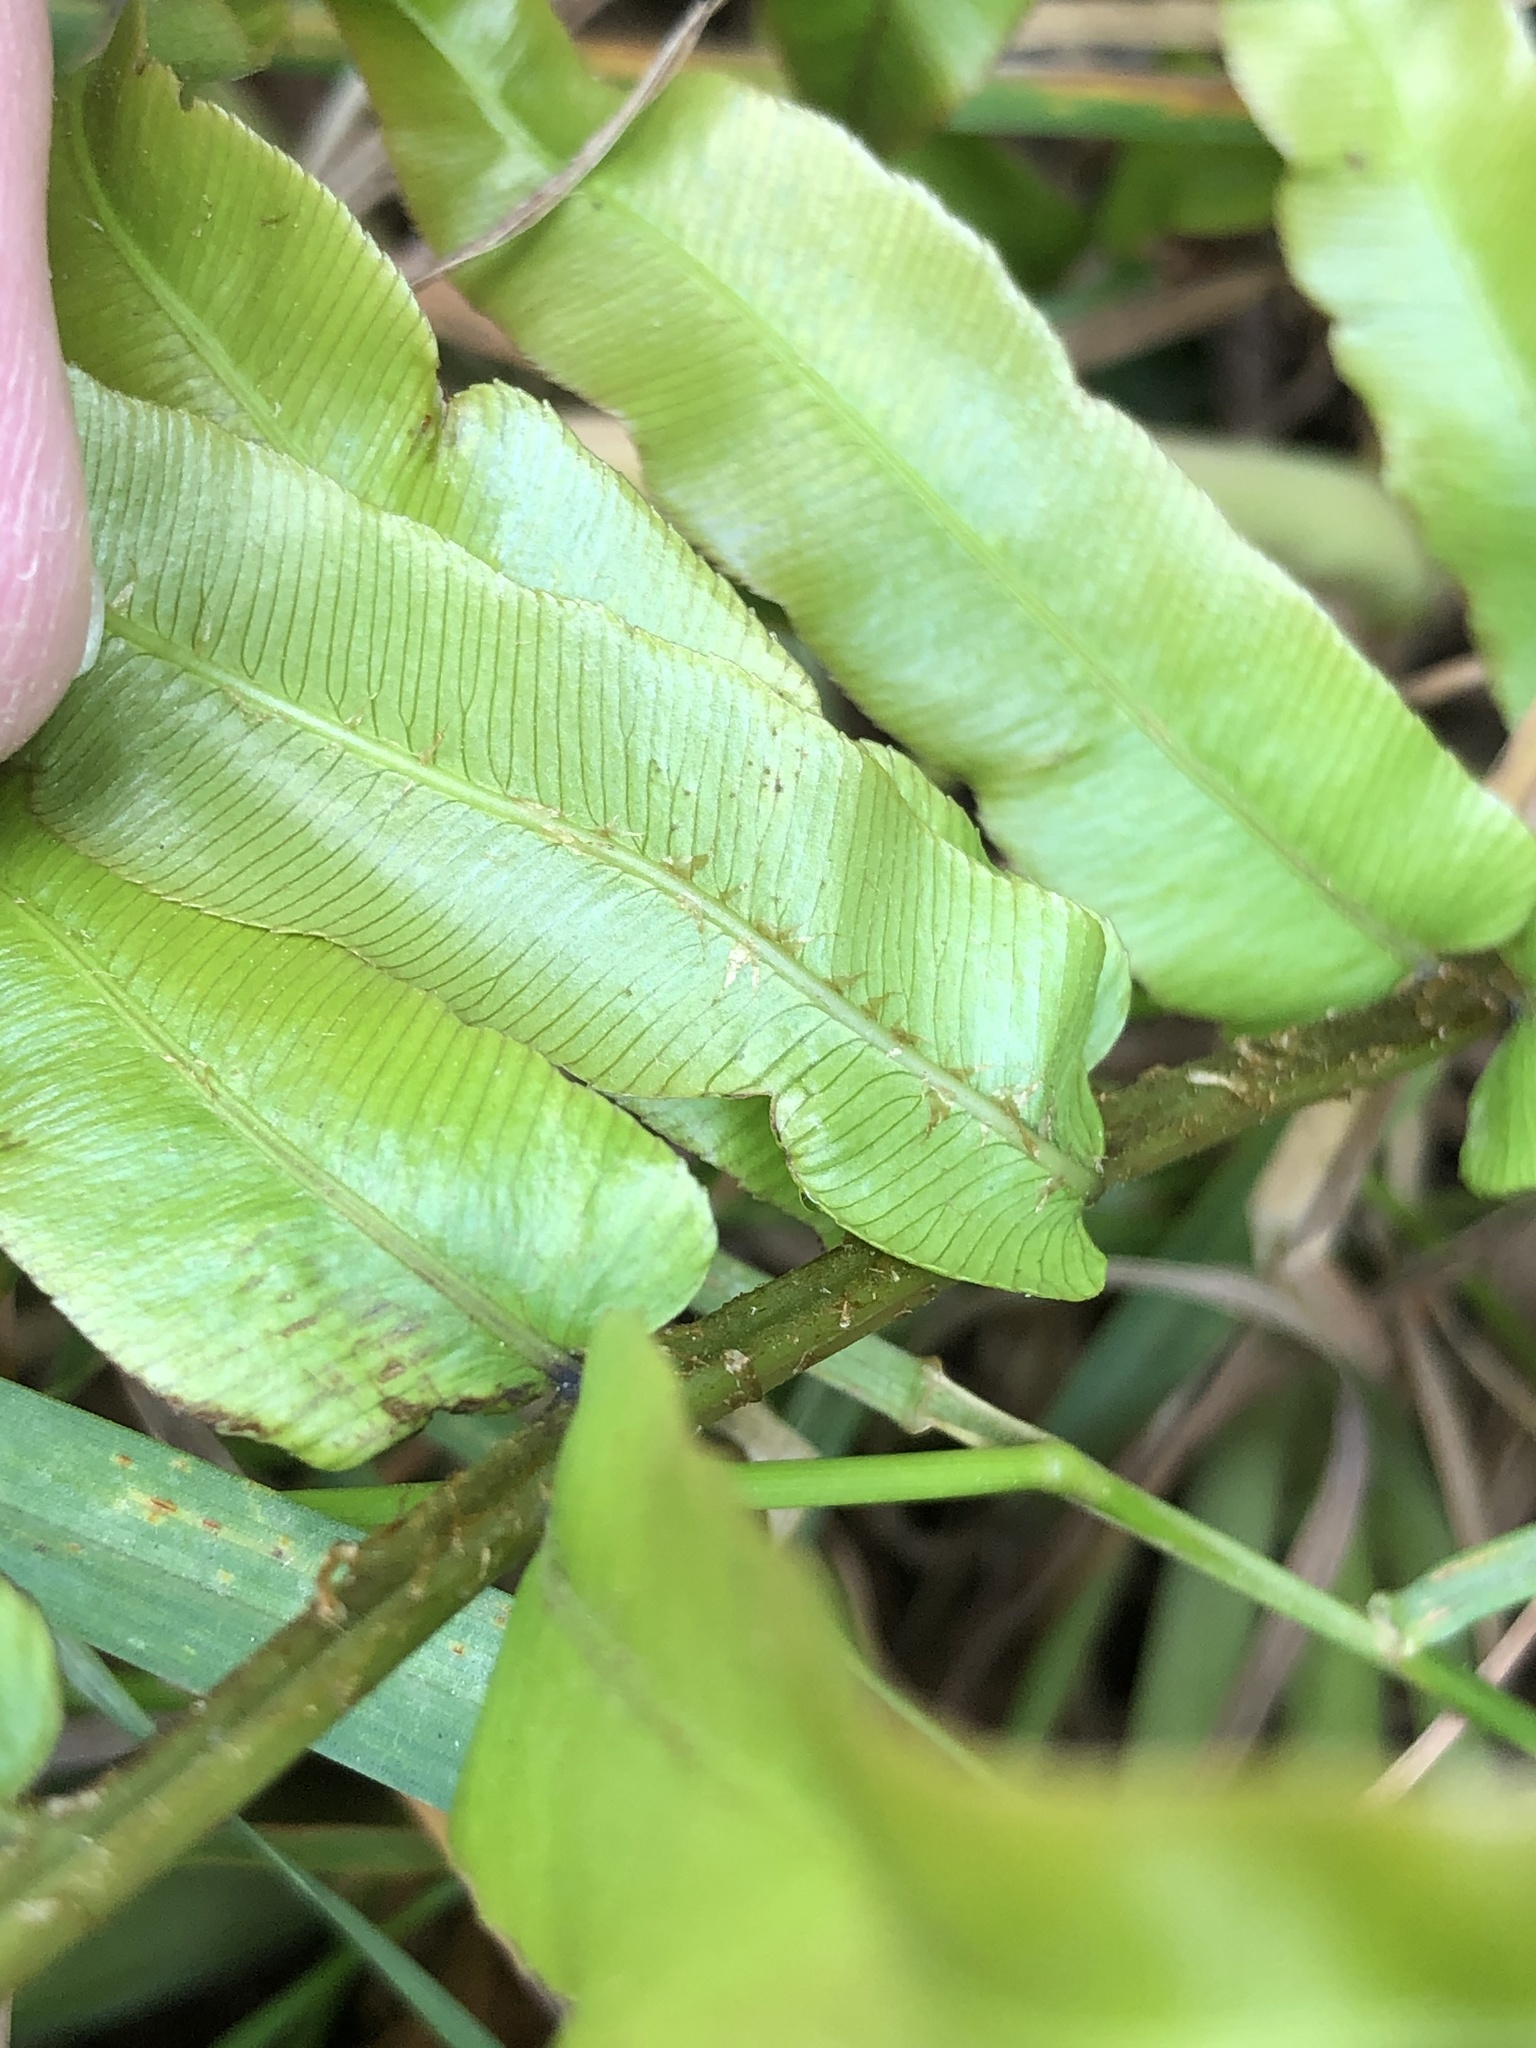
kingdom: Plantae
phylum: Tracheophyta
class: Polypodiopsida
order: Polypodiales
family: Blechnaceae
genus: Parablechnum
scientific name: Parablechnum minus
